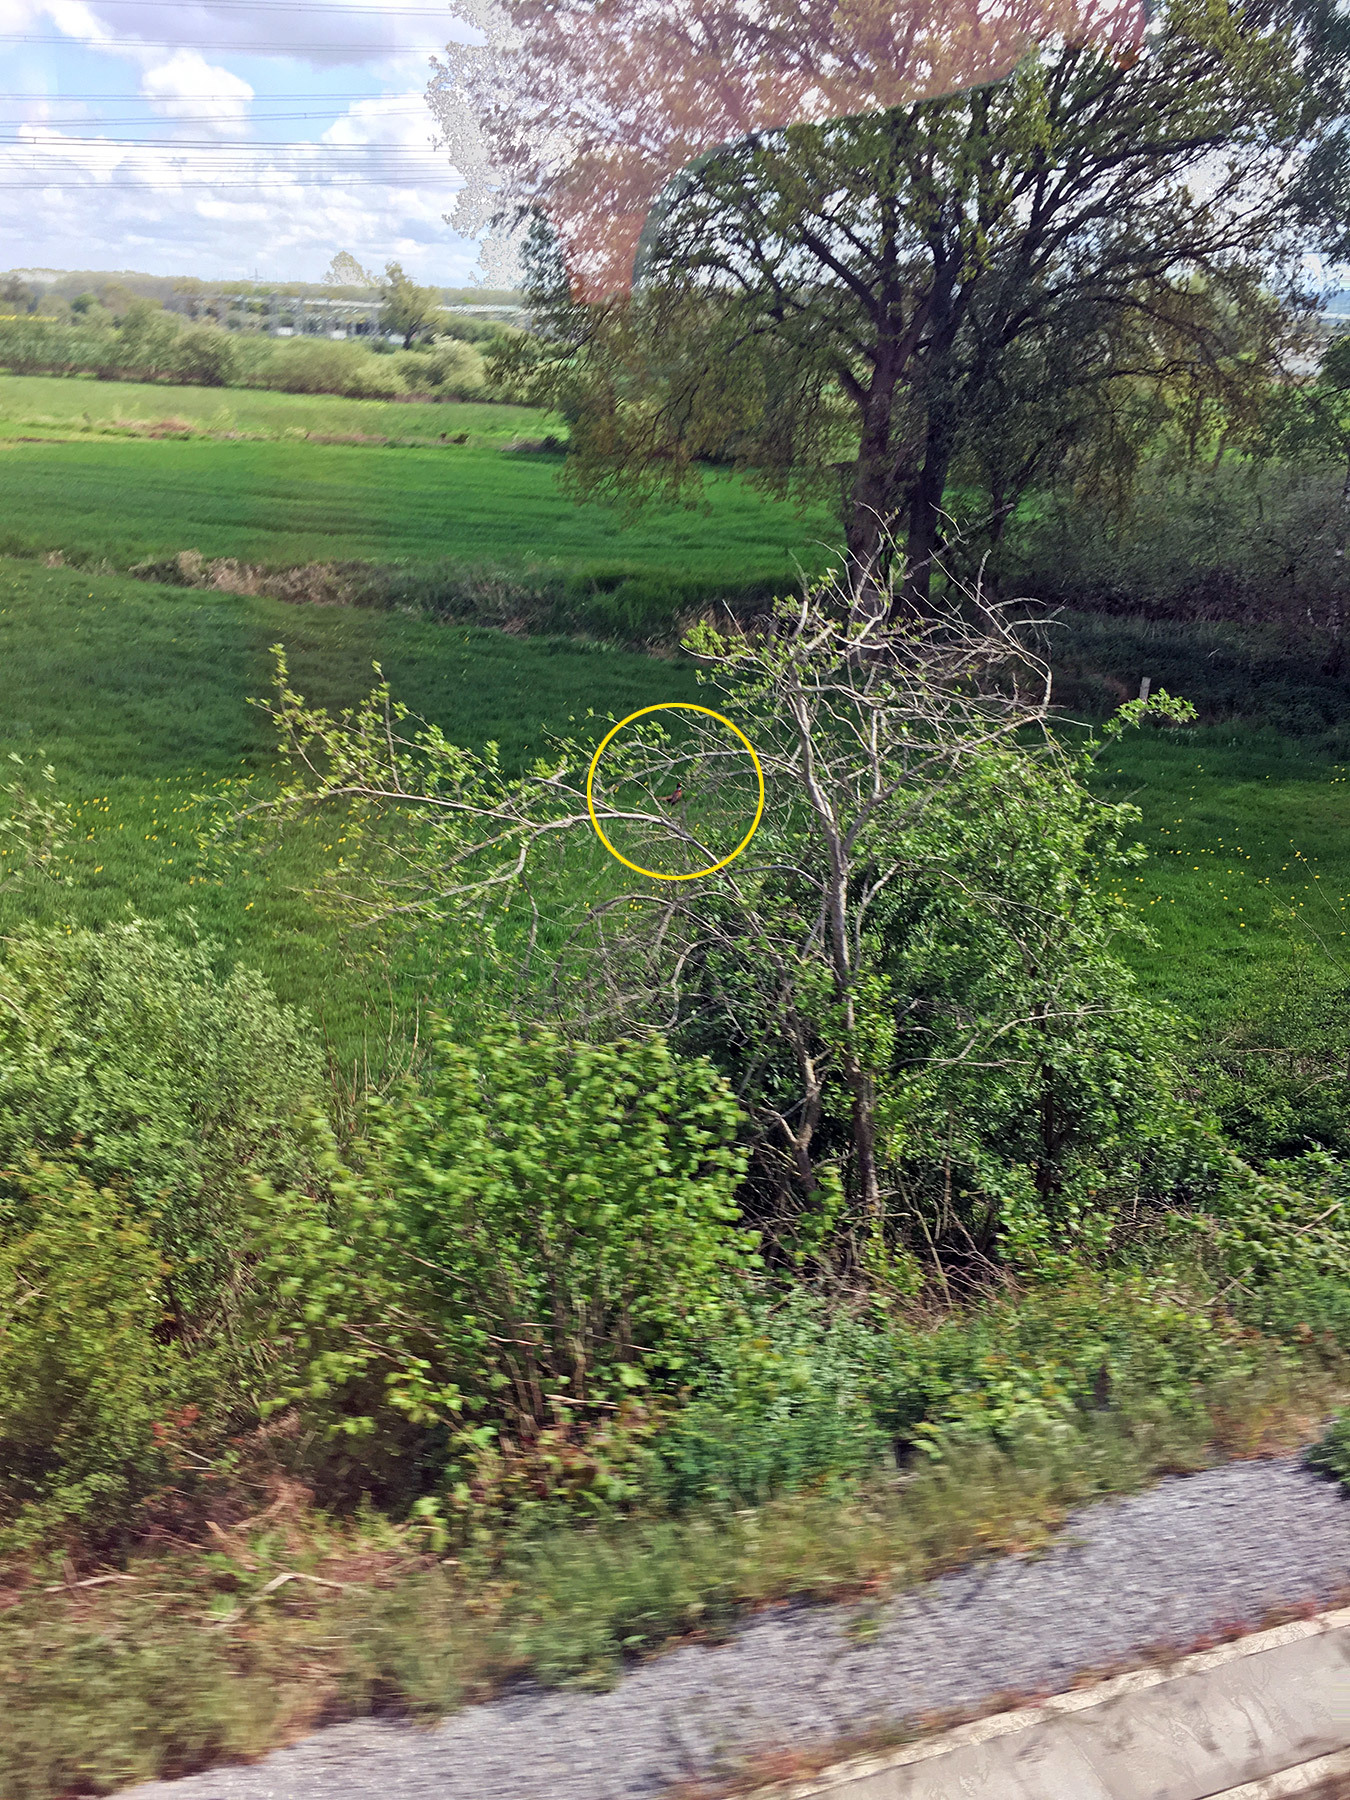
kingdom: Animalia
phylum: Chordata
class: Aves
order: Galliformes
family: Phasianidae
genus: Phasianus
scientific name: Phasianus colchicus
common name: Common pheasant
